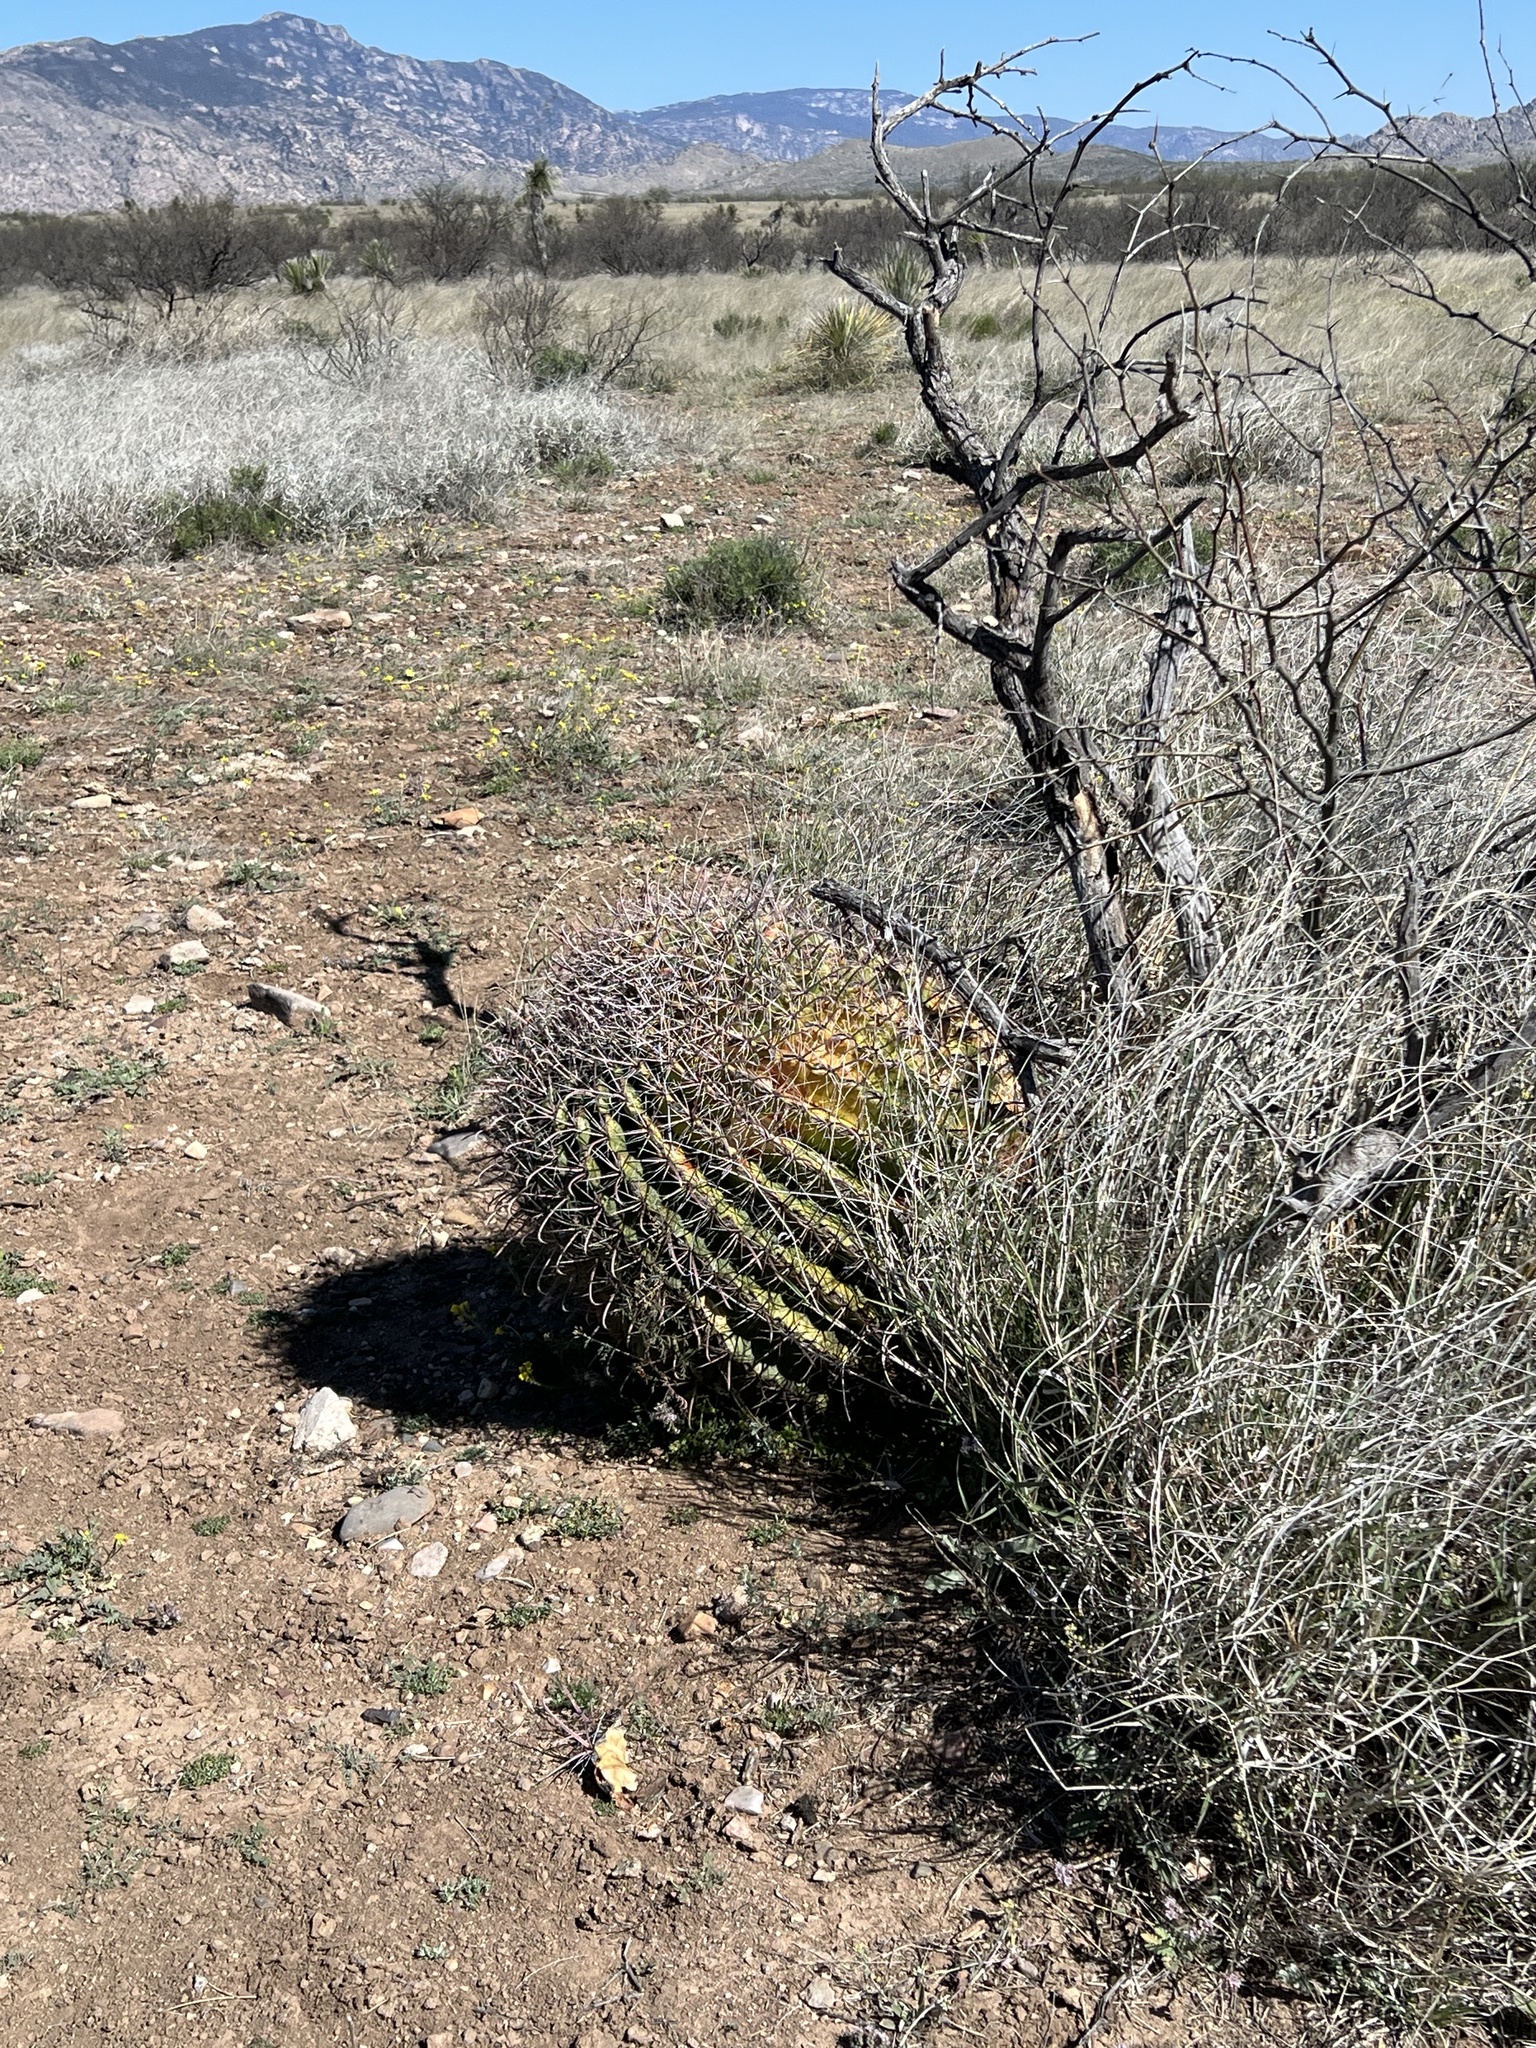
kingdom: Plantae
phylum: Tracheophyta
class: Magnoliopsida
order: Caryophyllales
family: Cactaceae
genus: Ferocactus
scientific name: Ferocactus wislizeni
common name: Candy barrel cactus
